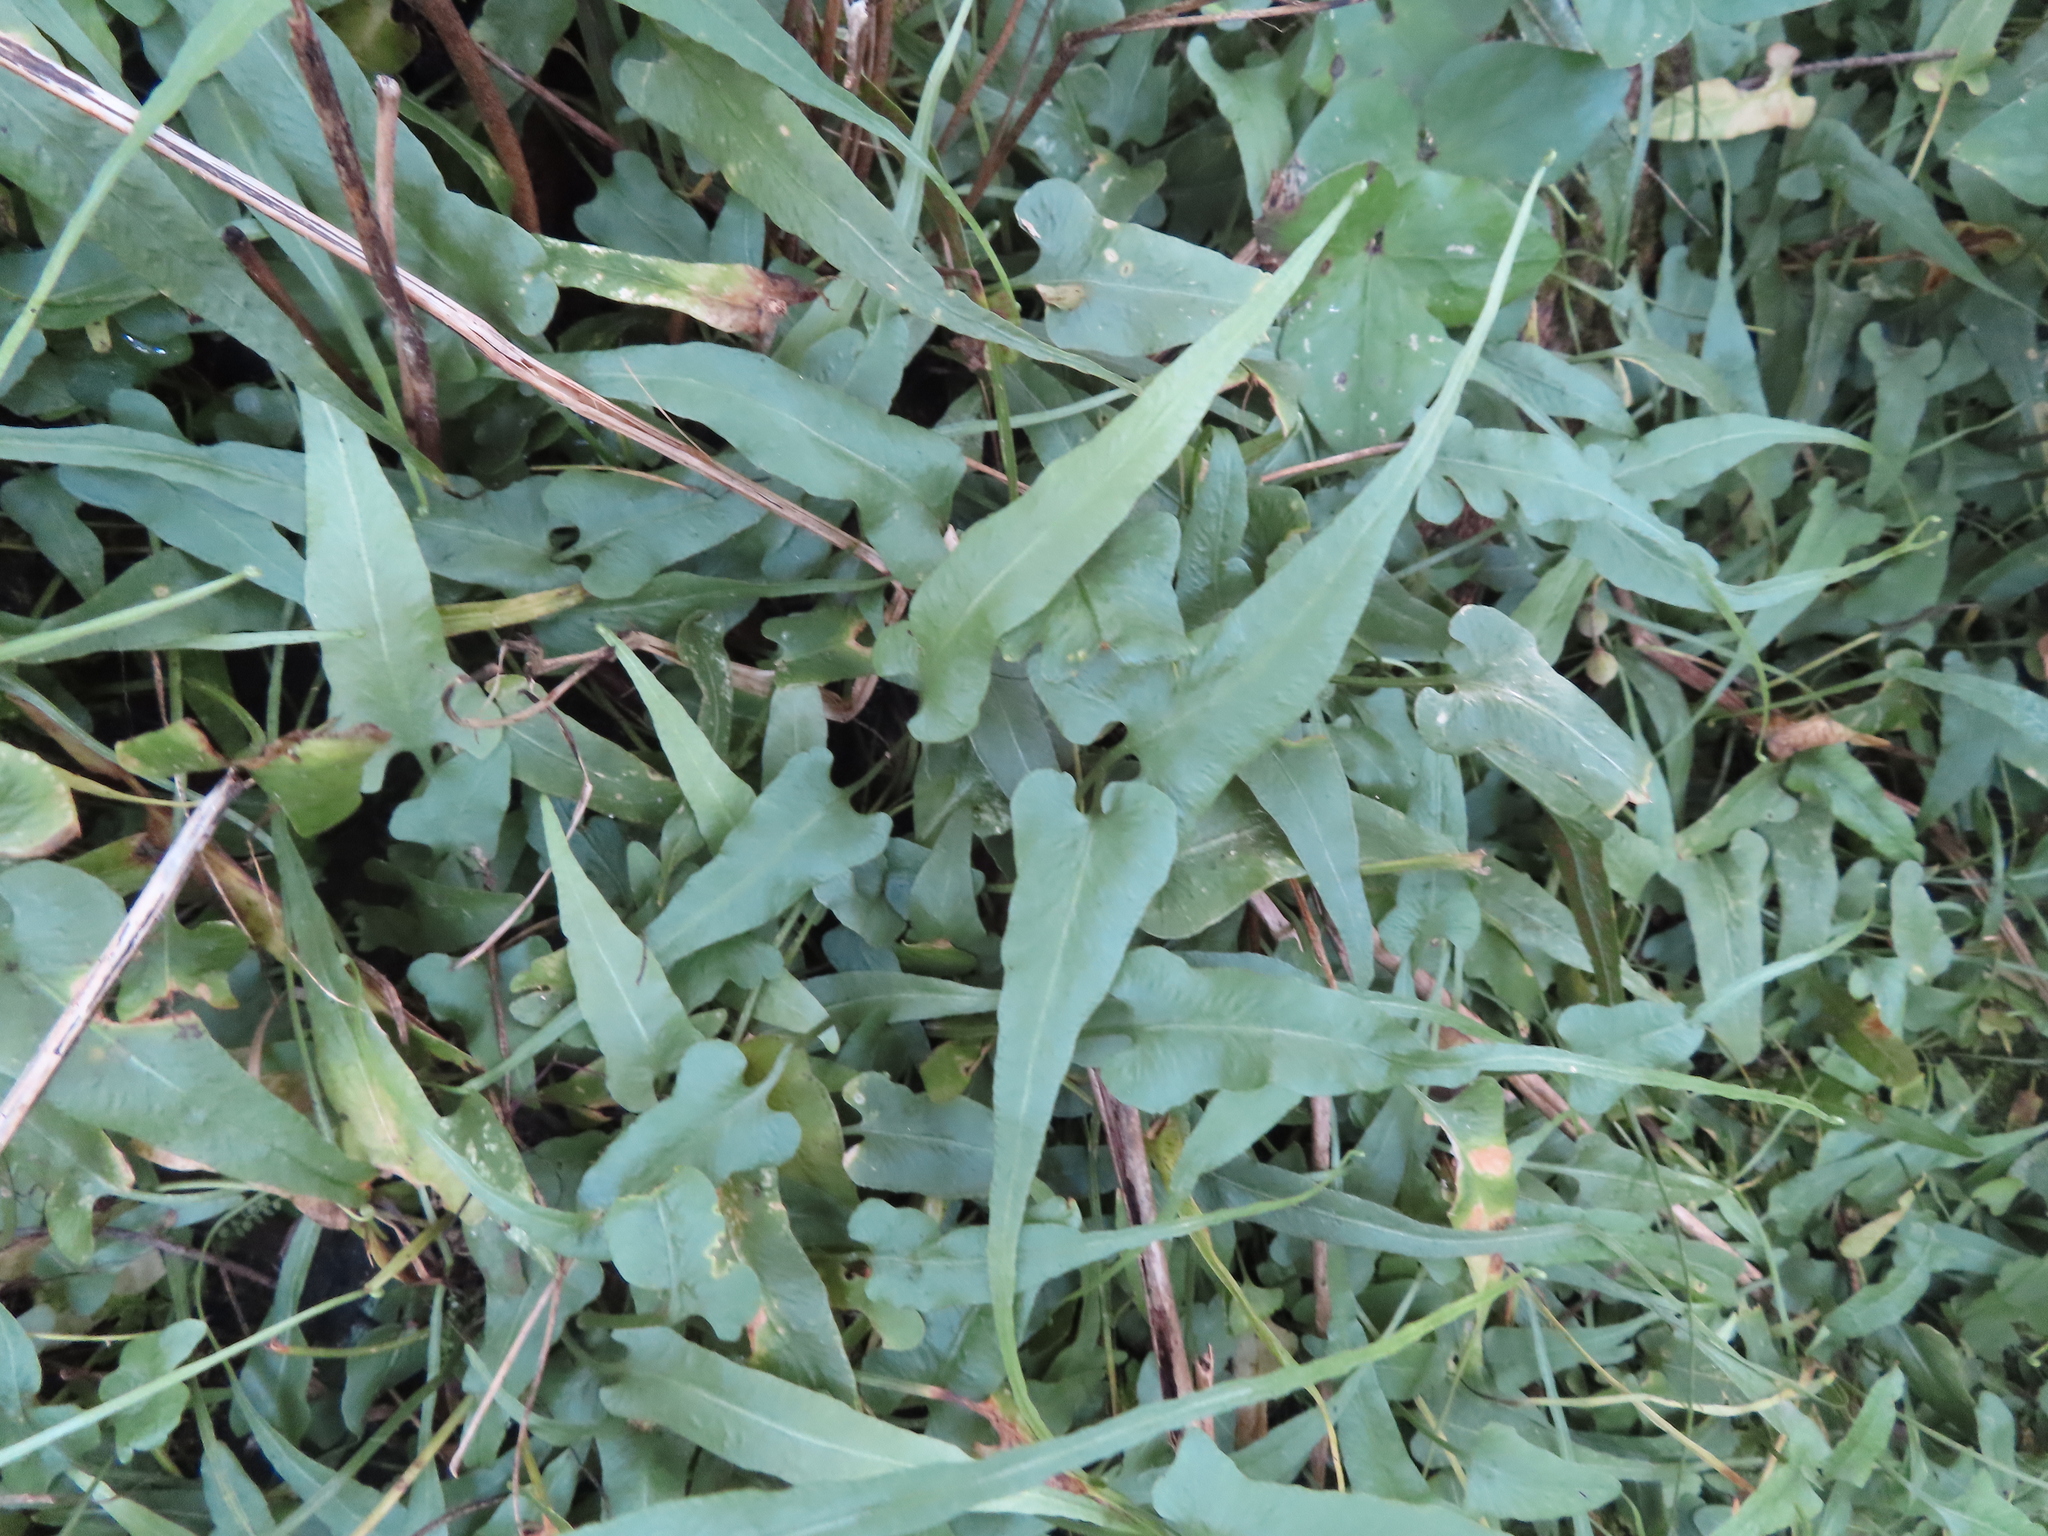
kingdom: Plantae
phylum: Tracheophyta
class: Polypodiopsida
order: Polypodiales
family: Aspleniaceae
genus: Asplenium
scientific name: Asplenium rhizophyllum
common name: Walking fern
